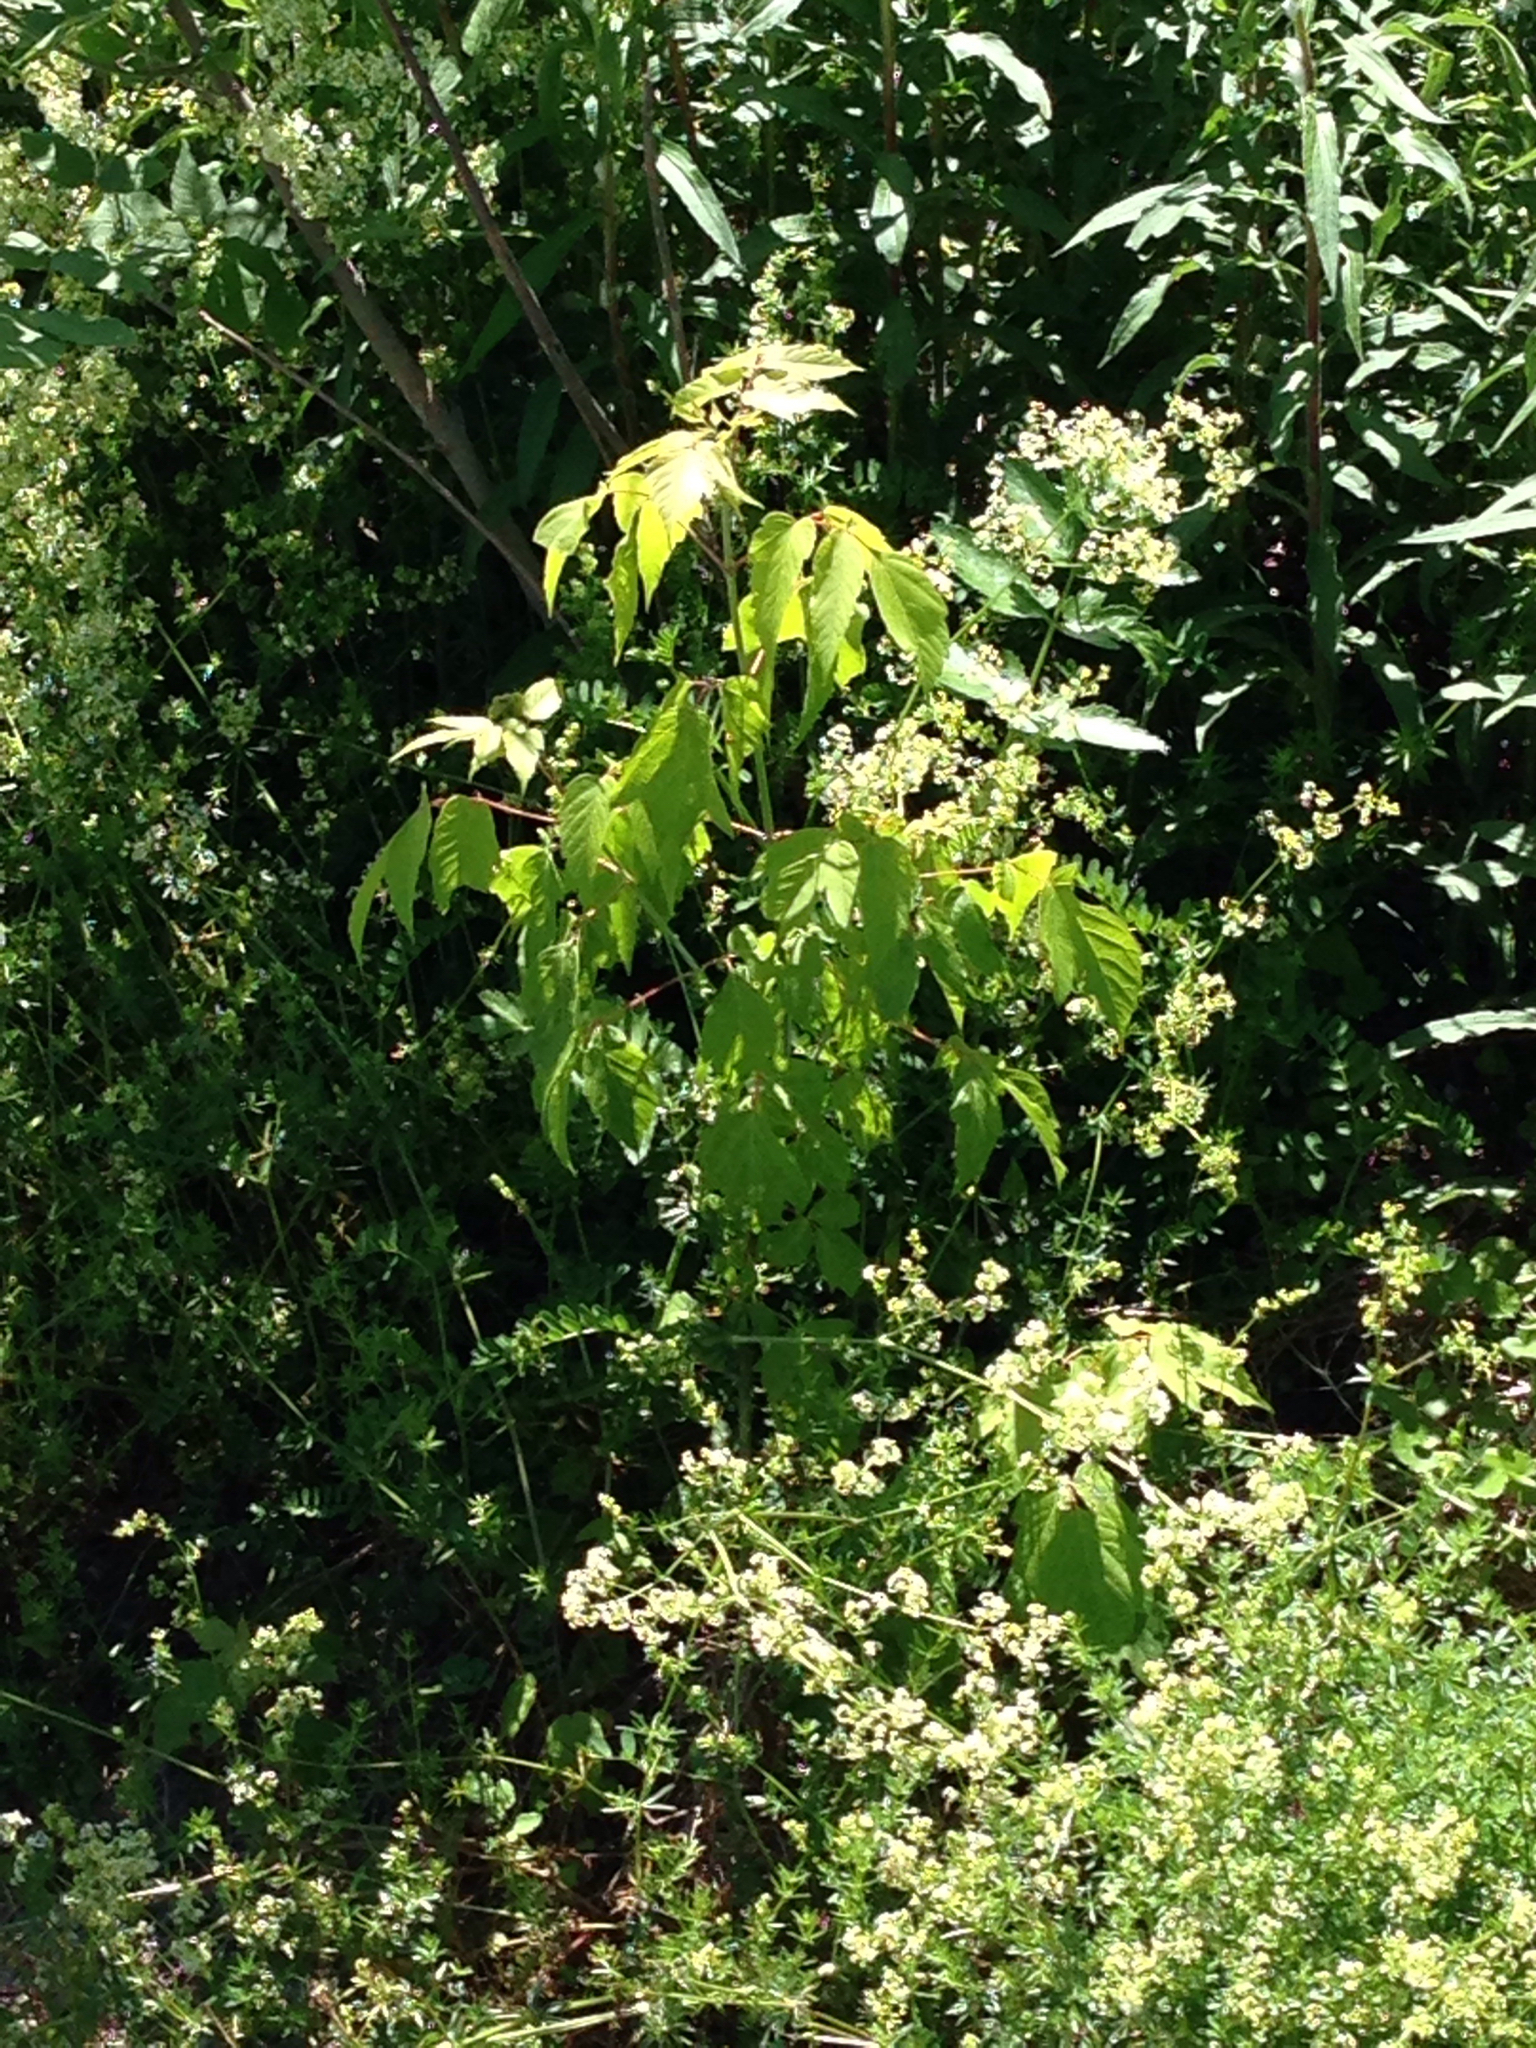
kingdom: Plantae
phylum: Tracheophyta
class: Magnoliopsida
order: Sapindales
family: Sapindaceae
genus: Acer
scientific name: Acer negundo
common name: Ashleaf maple
